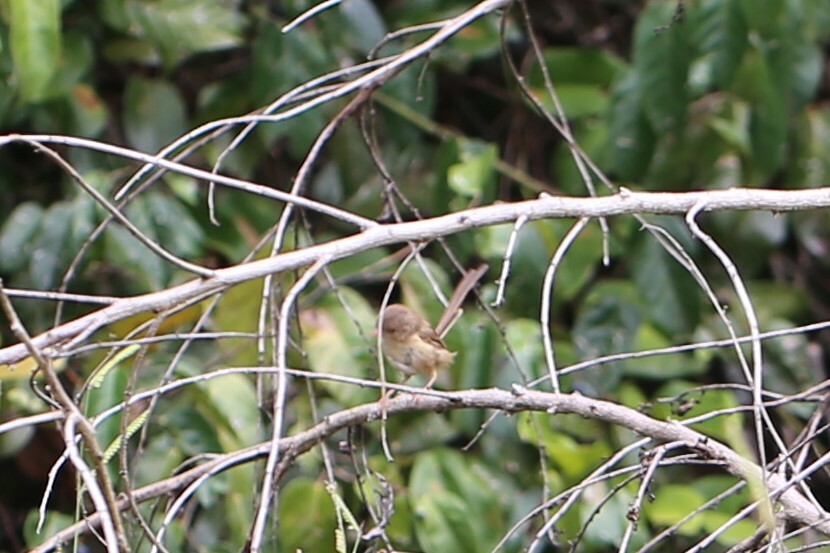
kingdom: Animalia
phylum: Chordata
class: Aves
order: Passeriformes
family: Maluridae
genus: Malurus
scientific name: Malurus melanocephalus
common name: Red-backed fairywren
